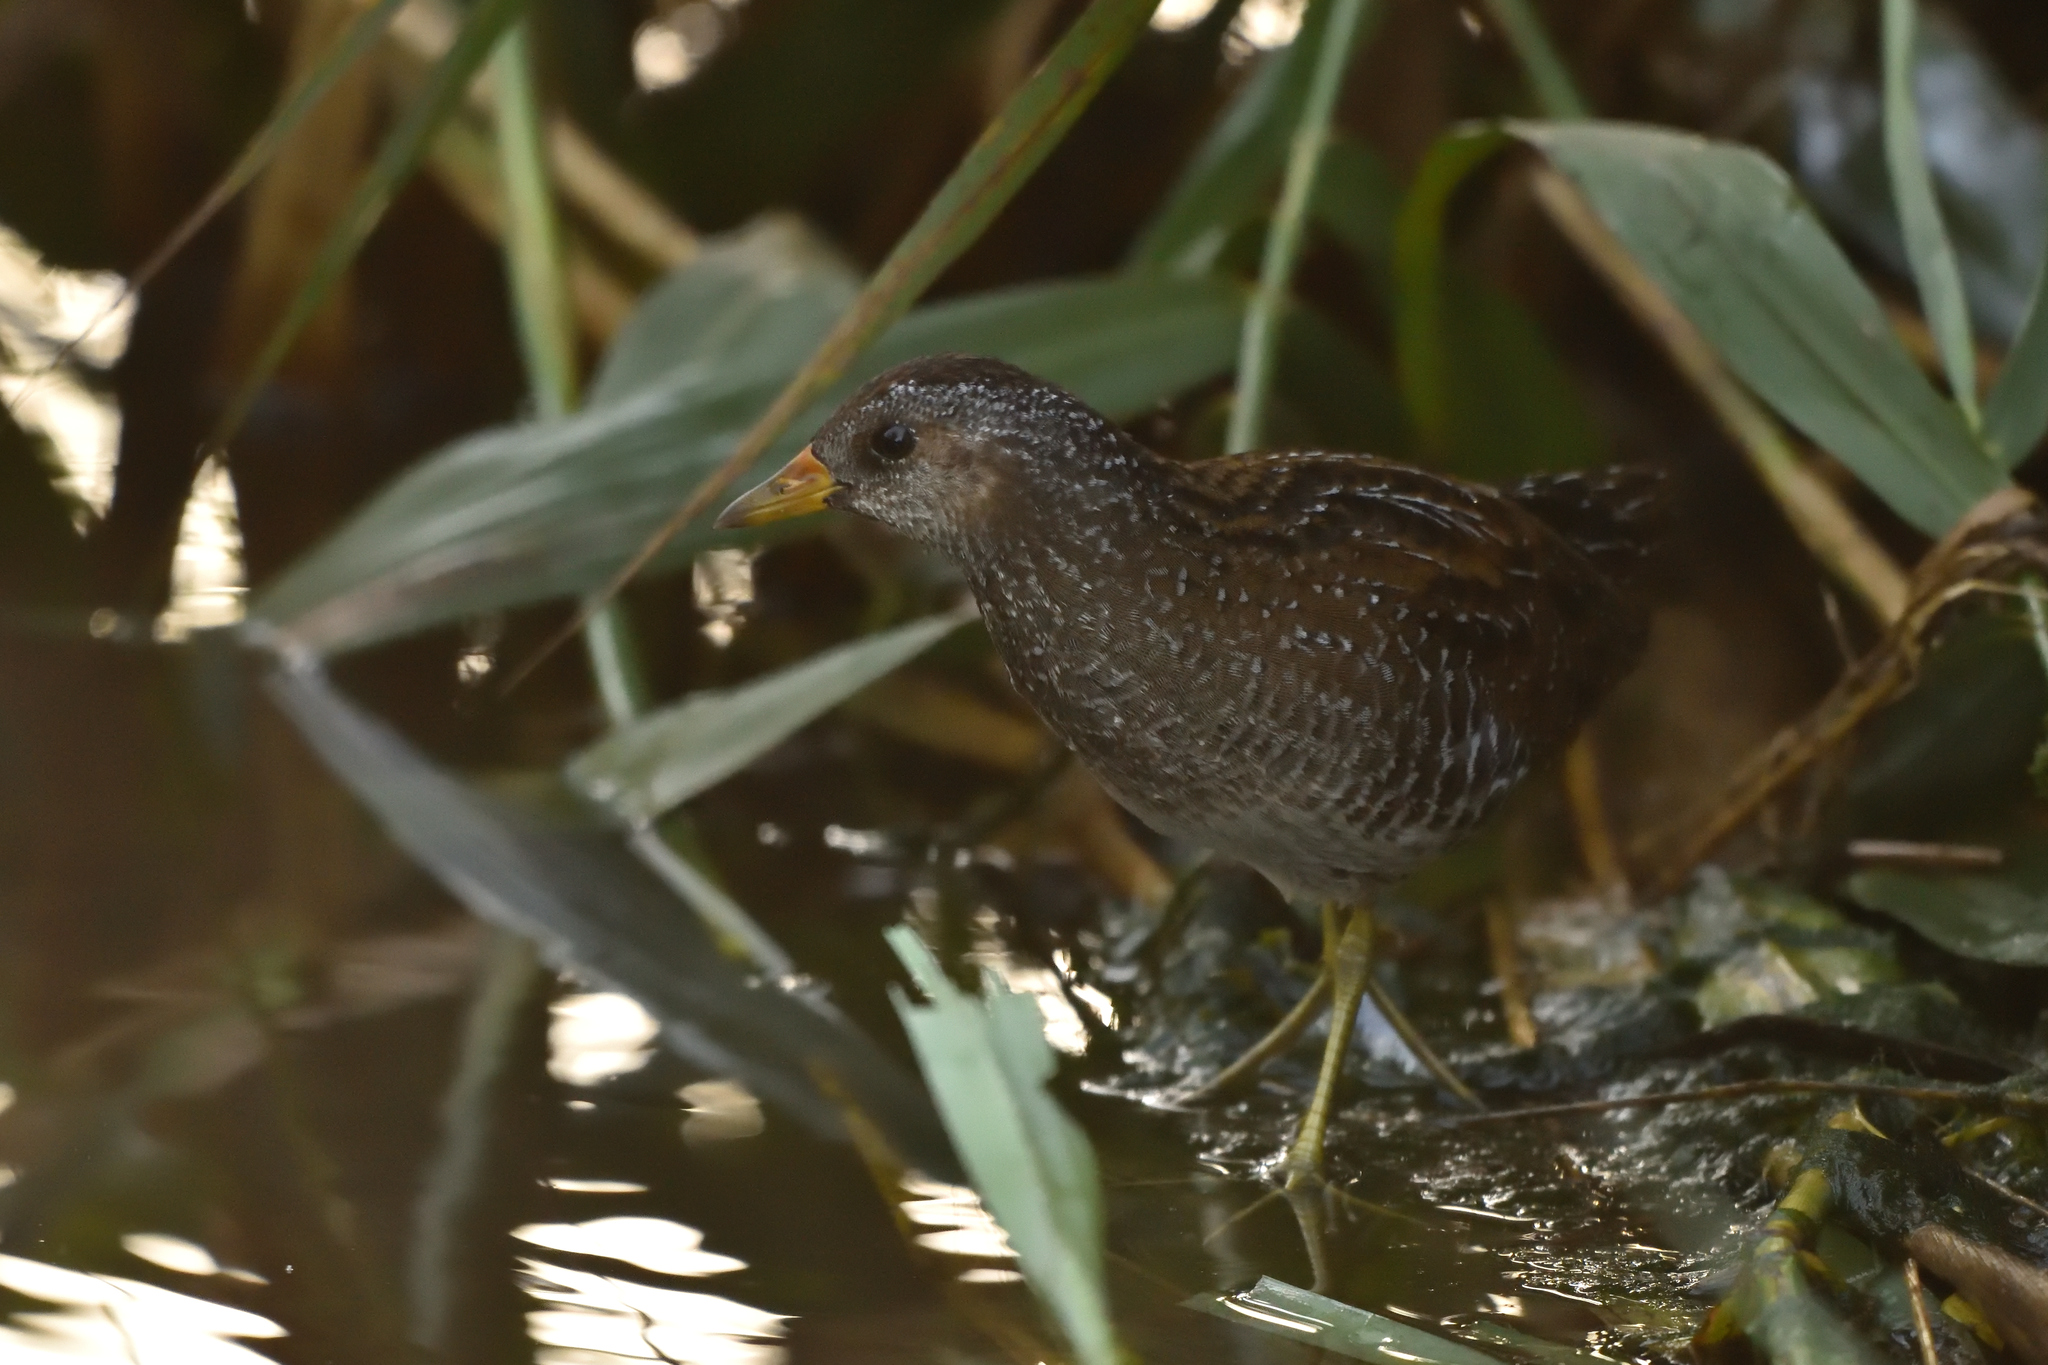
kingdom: Animalia
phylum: Chordata
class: Aves
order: Gruiformes
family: Rallidae
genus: Porzana
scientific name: Porzana porzana
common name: Spotted crake
